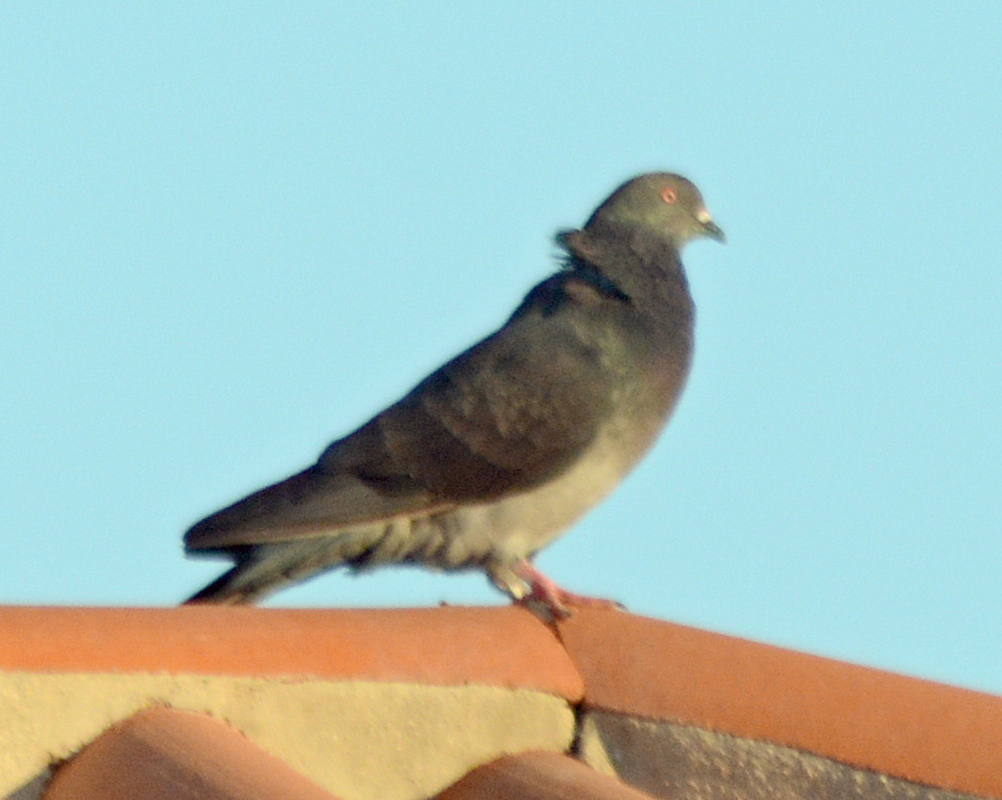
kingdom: Animalia
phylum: Chordata
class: Aves
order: Columbiformes
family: Columbidae
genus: Columba
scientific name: Columba livia
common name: Rock pigeon
